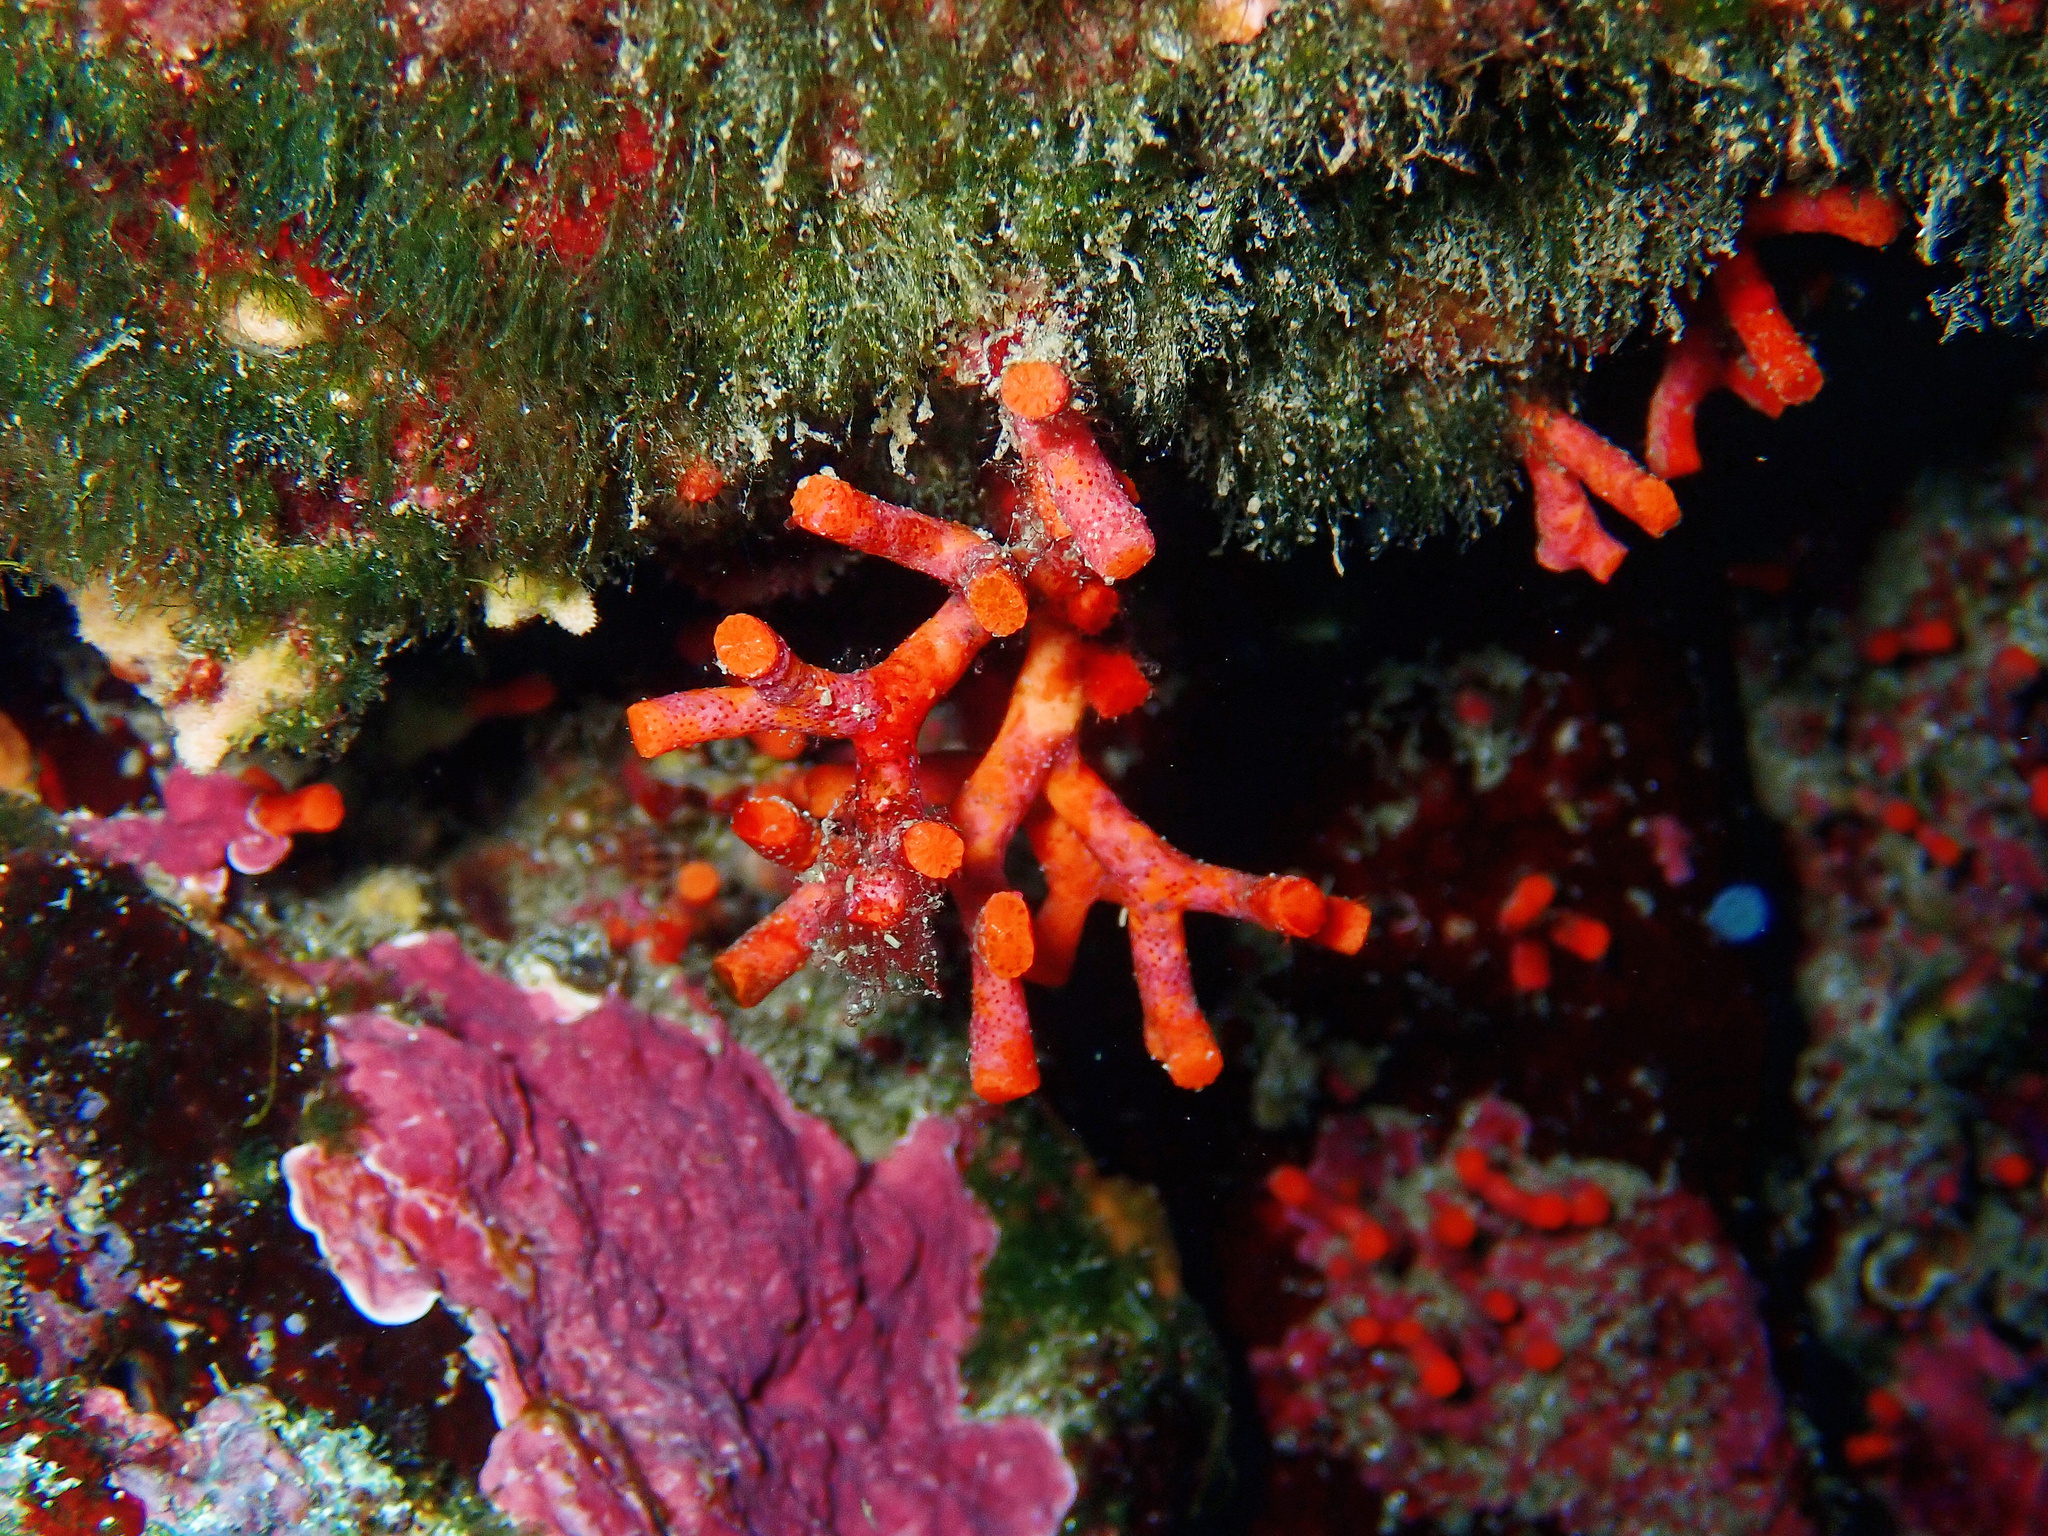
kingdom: Animalia
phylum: Bryozoa
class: Gymnolaemata
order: Cheilostomatida
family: Myriaporidae
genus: Myriapora
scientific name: Myriapora truncata
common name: False coral
